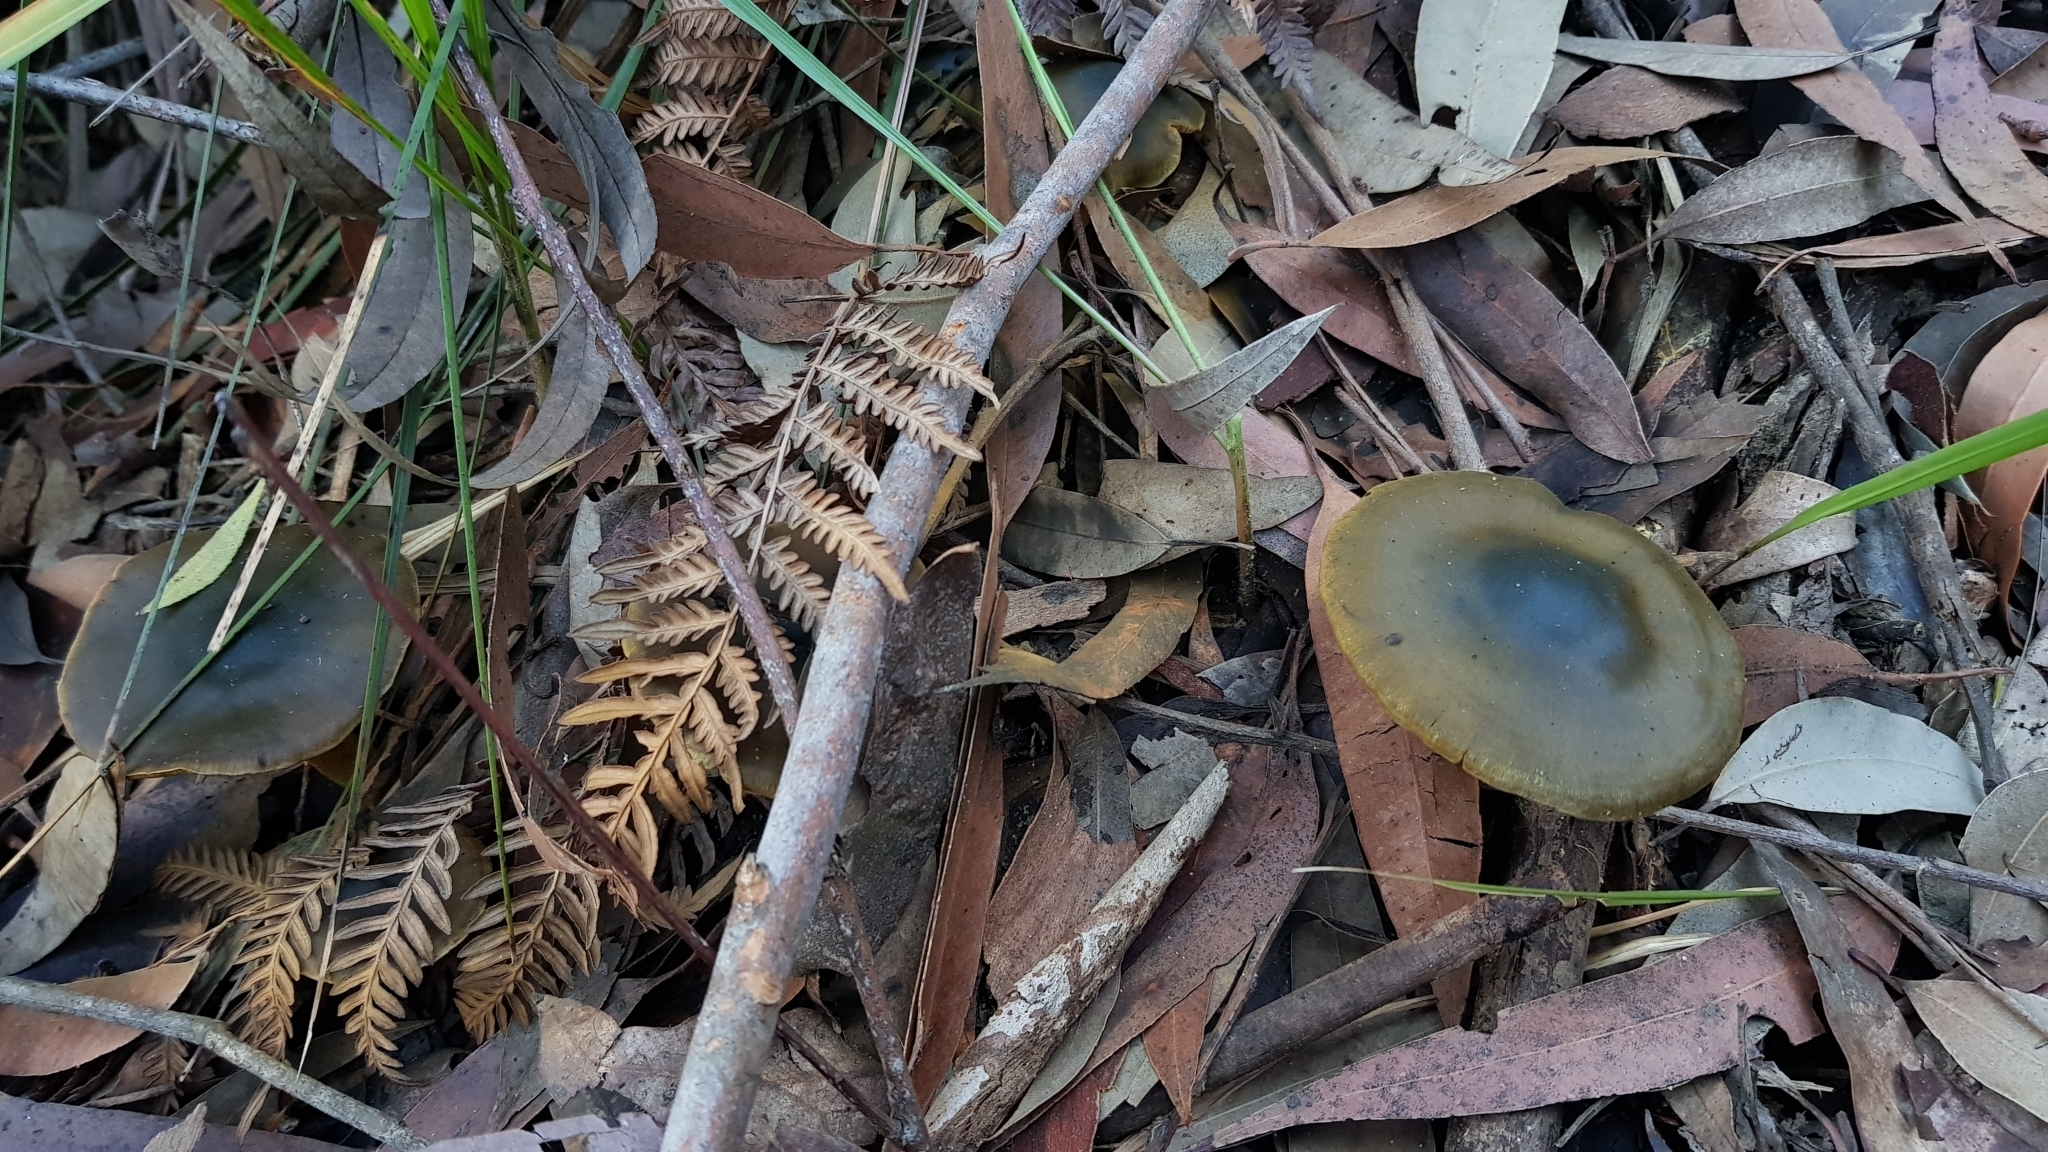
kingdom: Fungi
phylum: Basidiomycota
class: Agaricomycetes
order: Agaricales
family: Cortinariaceae
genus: Cortinarius
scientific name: Cortinarius austrovenetus
